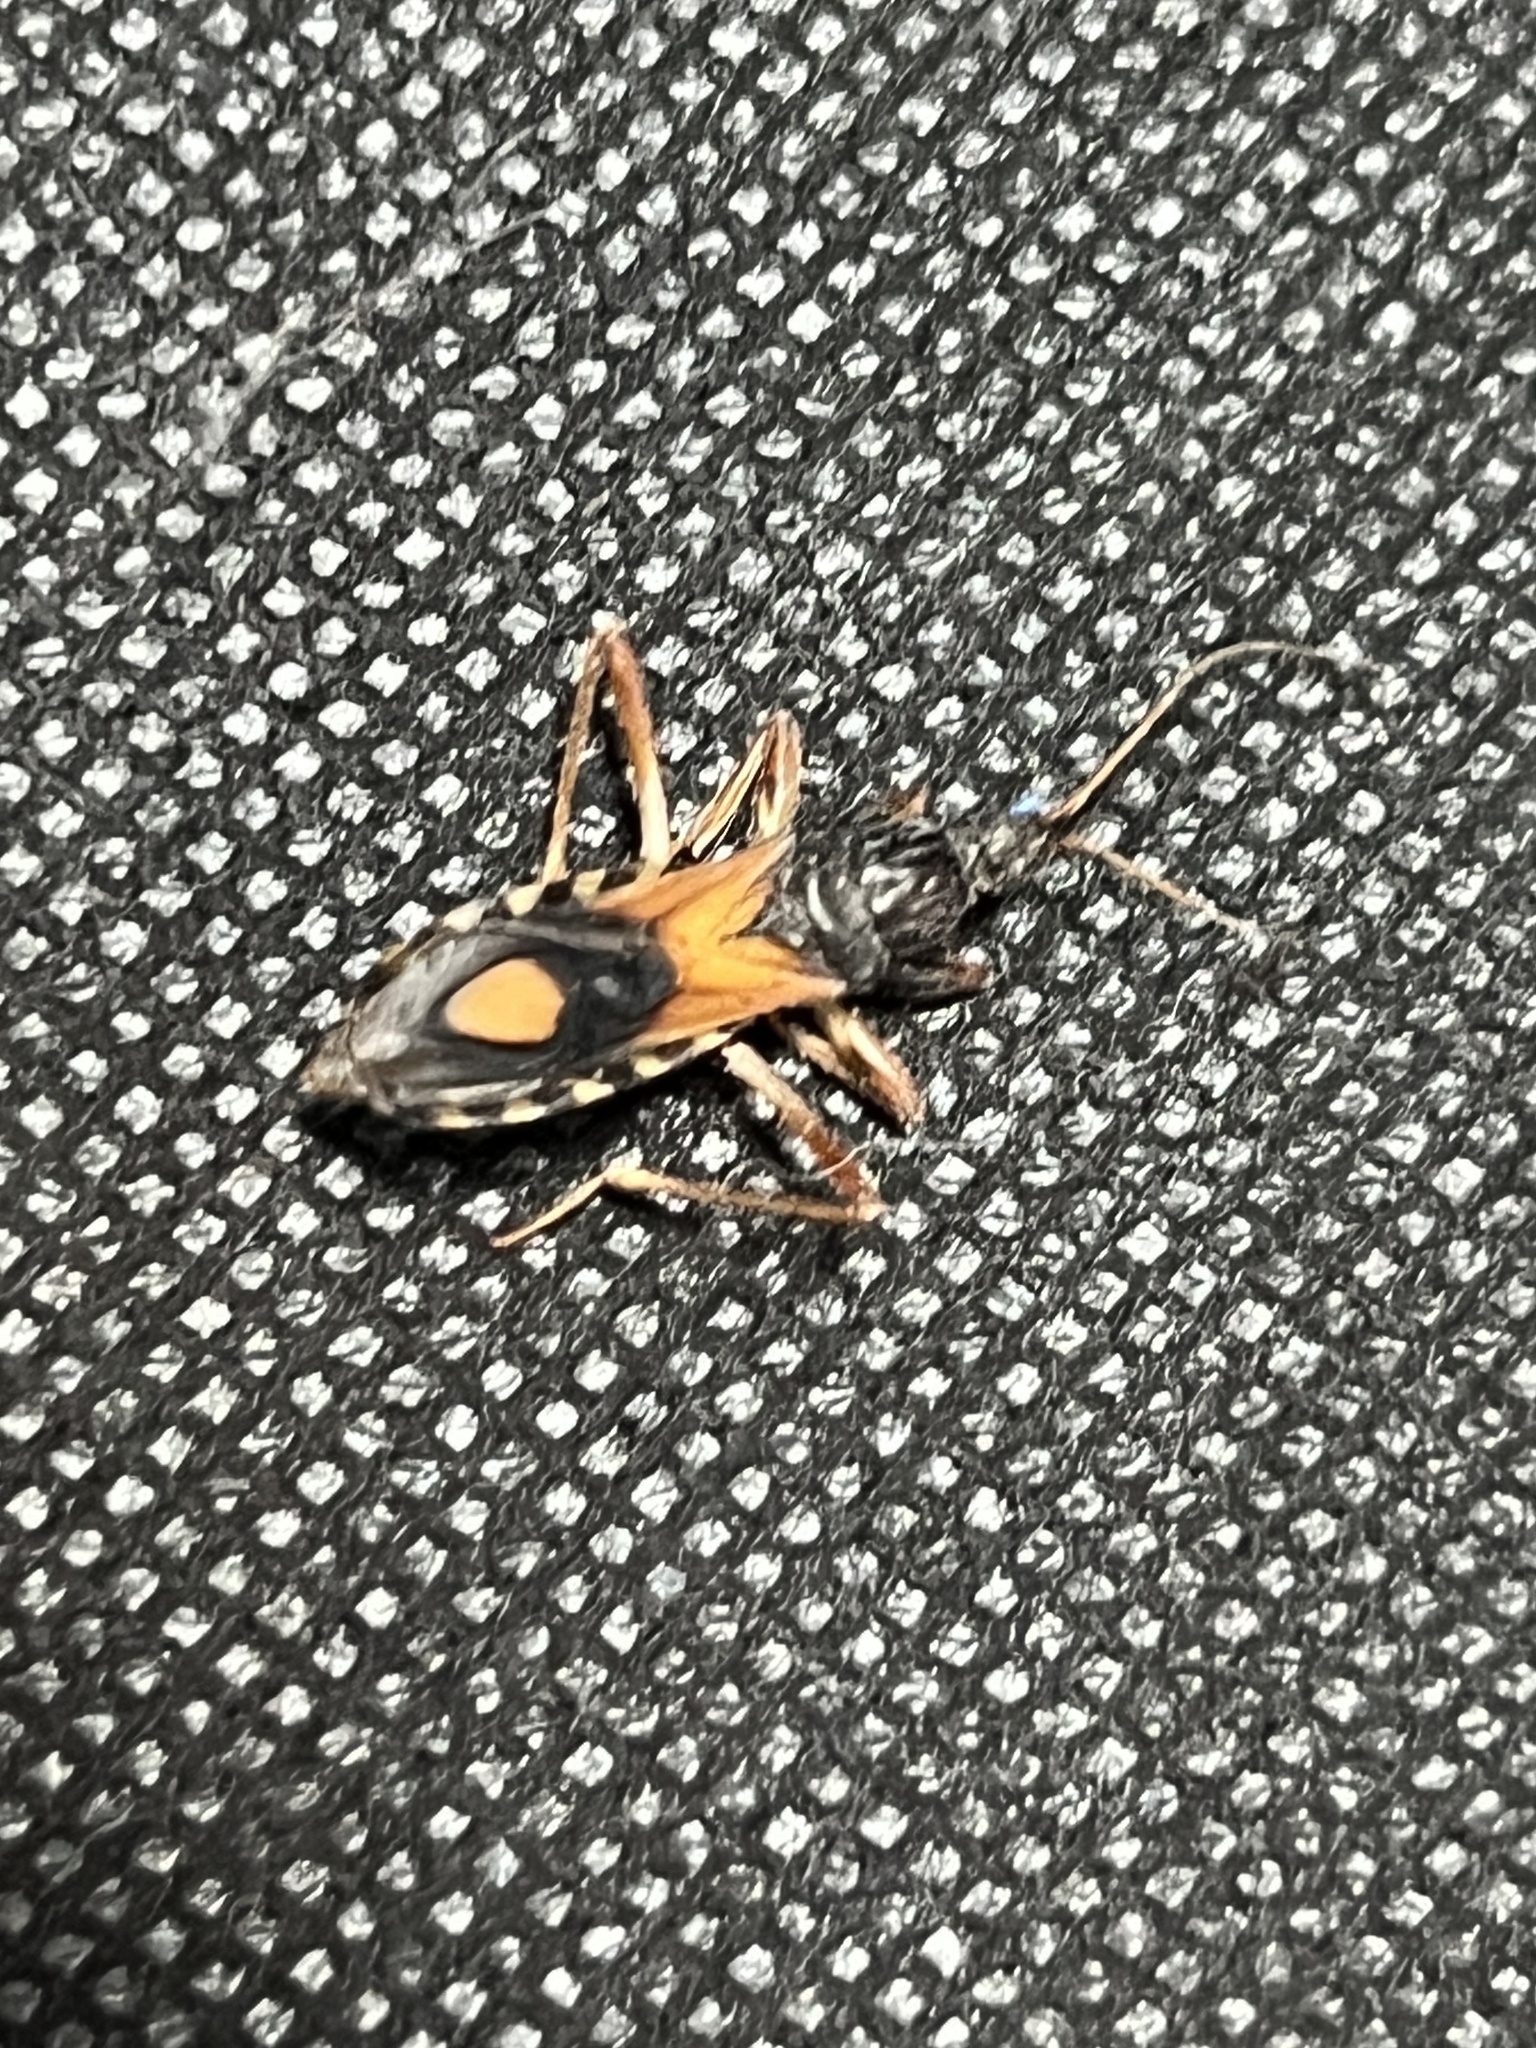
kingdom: Animalia
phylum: Arthropoda
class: Insecta
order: Hemiptera
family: Reduviidae
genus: Rasahus
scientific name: Rasahus biguttatus
